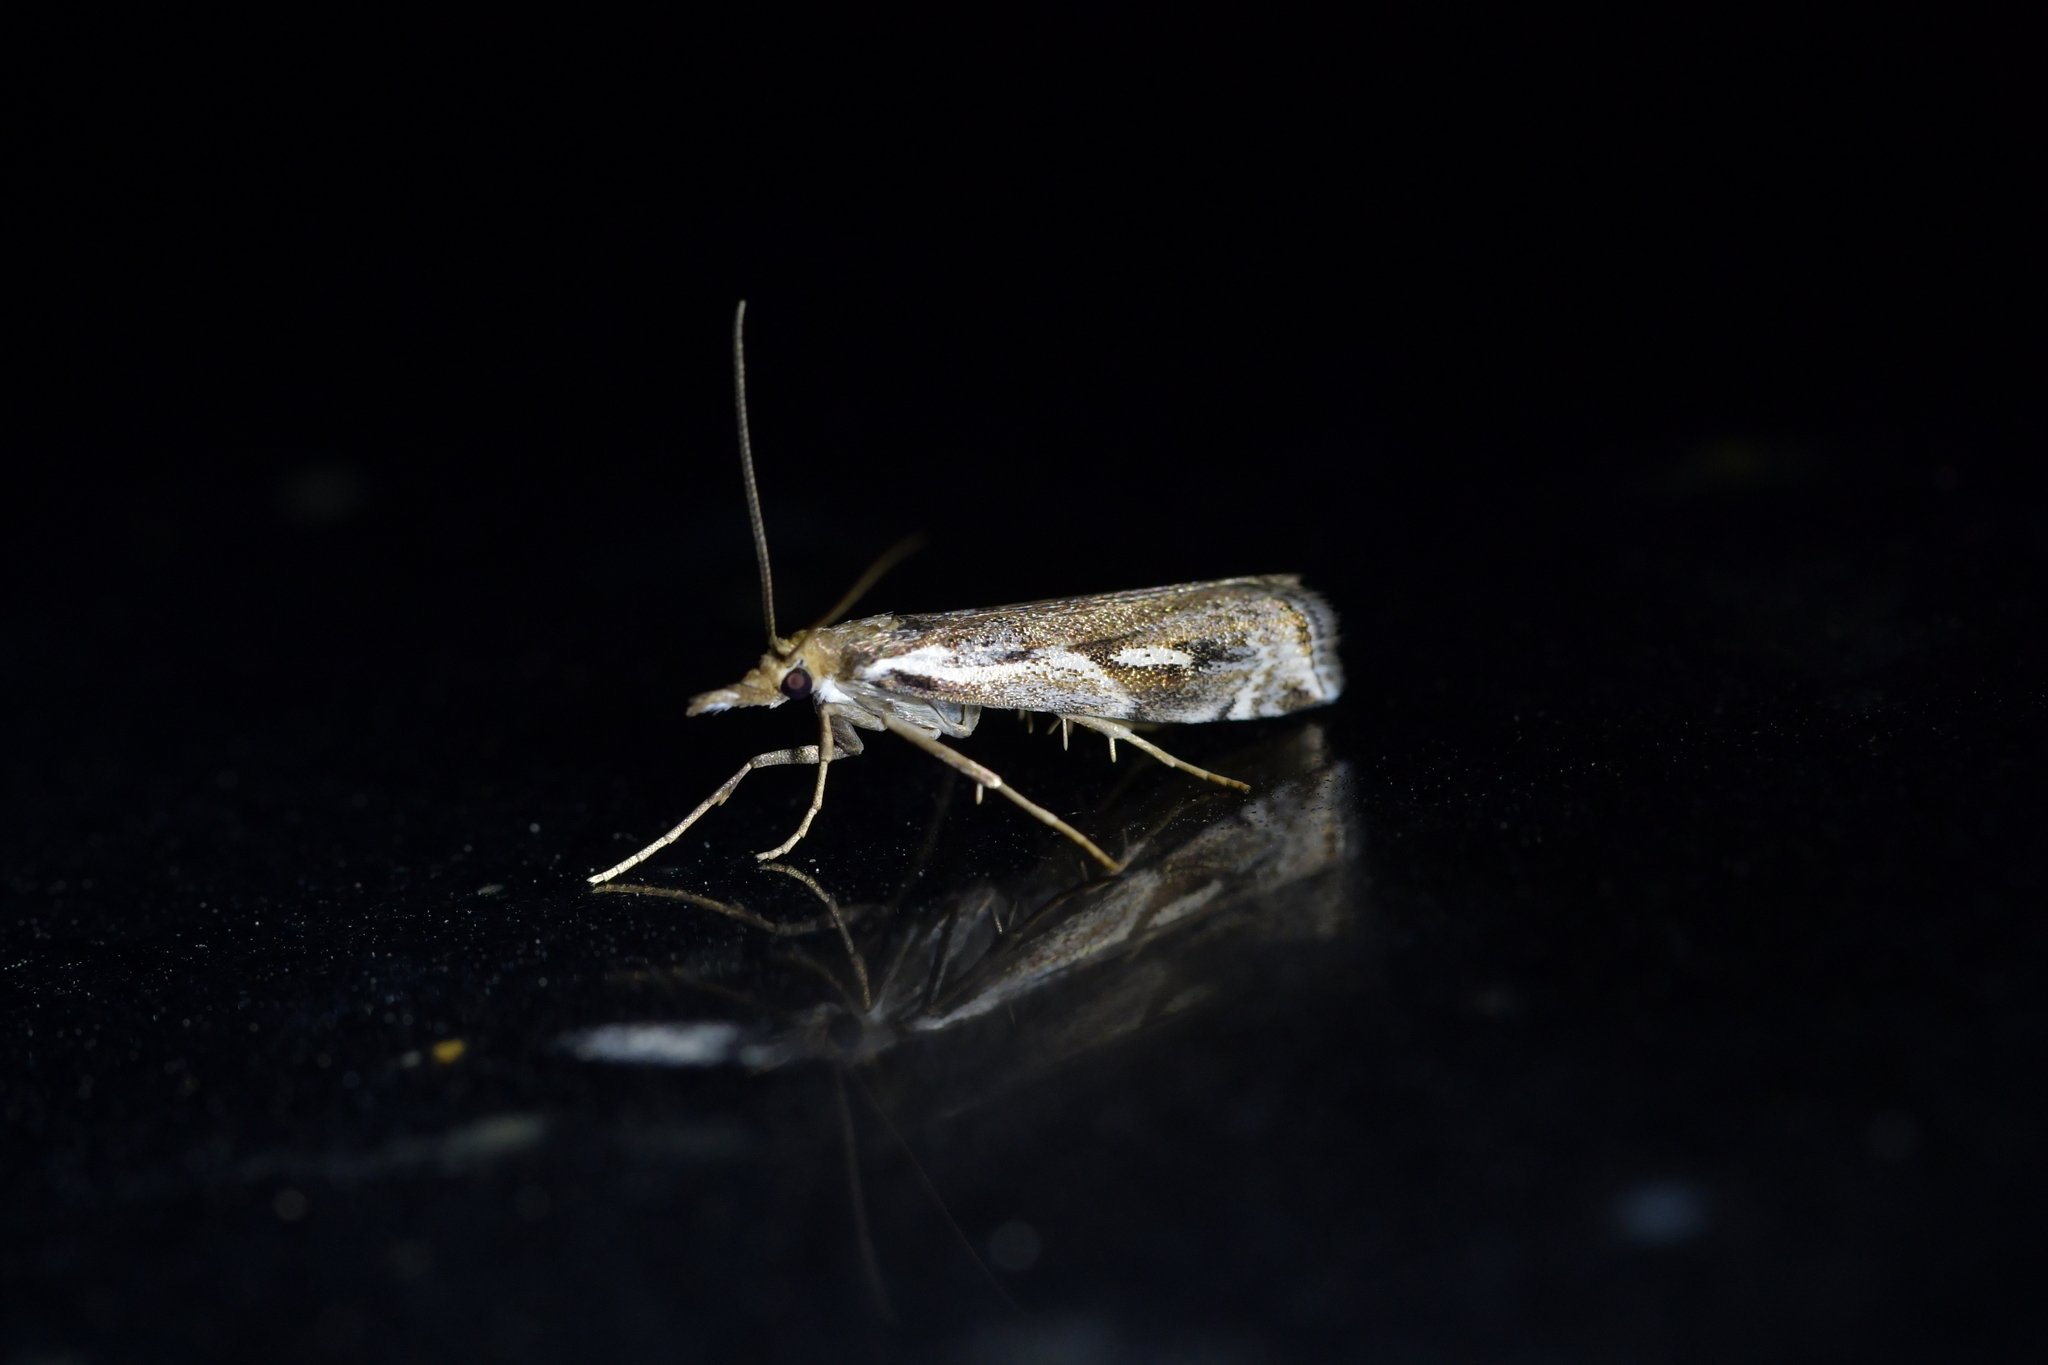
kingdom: Animalia
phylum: Arthropoda
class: Insecta
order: Lepidoptera
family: Crambidae
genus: Orocrambus
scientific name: Orocrambus vulgaris
